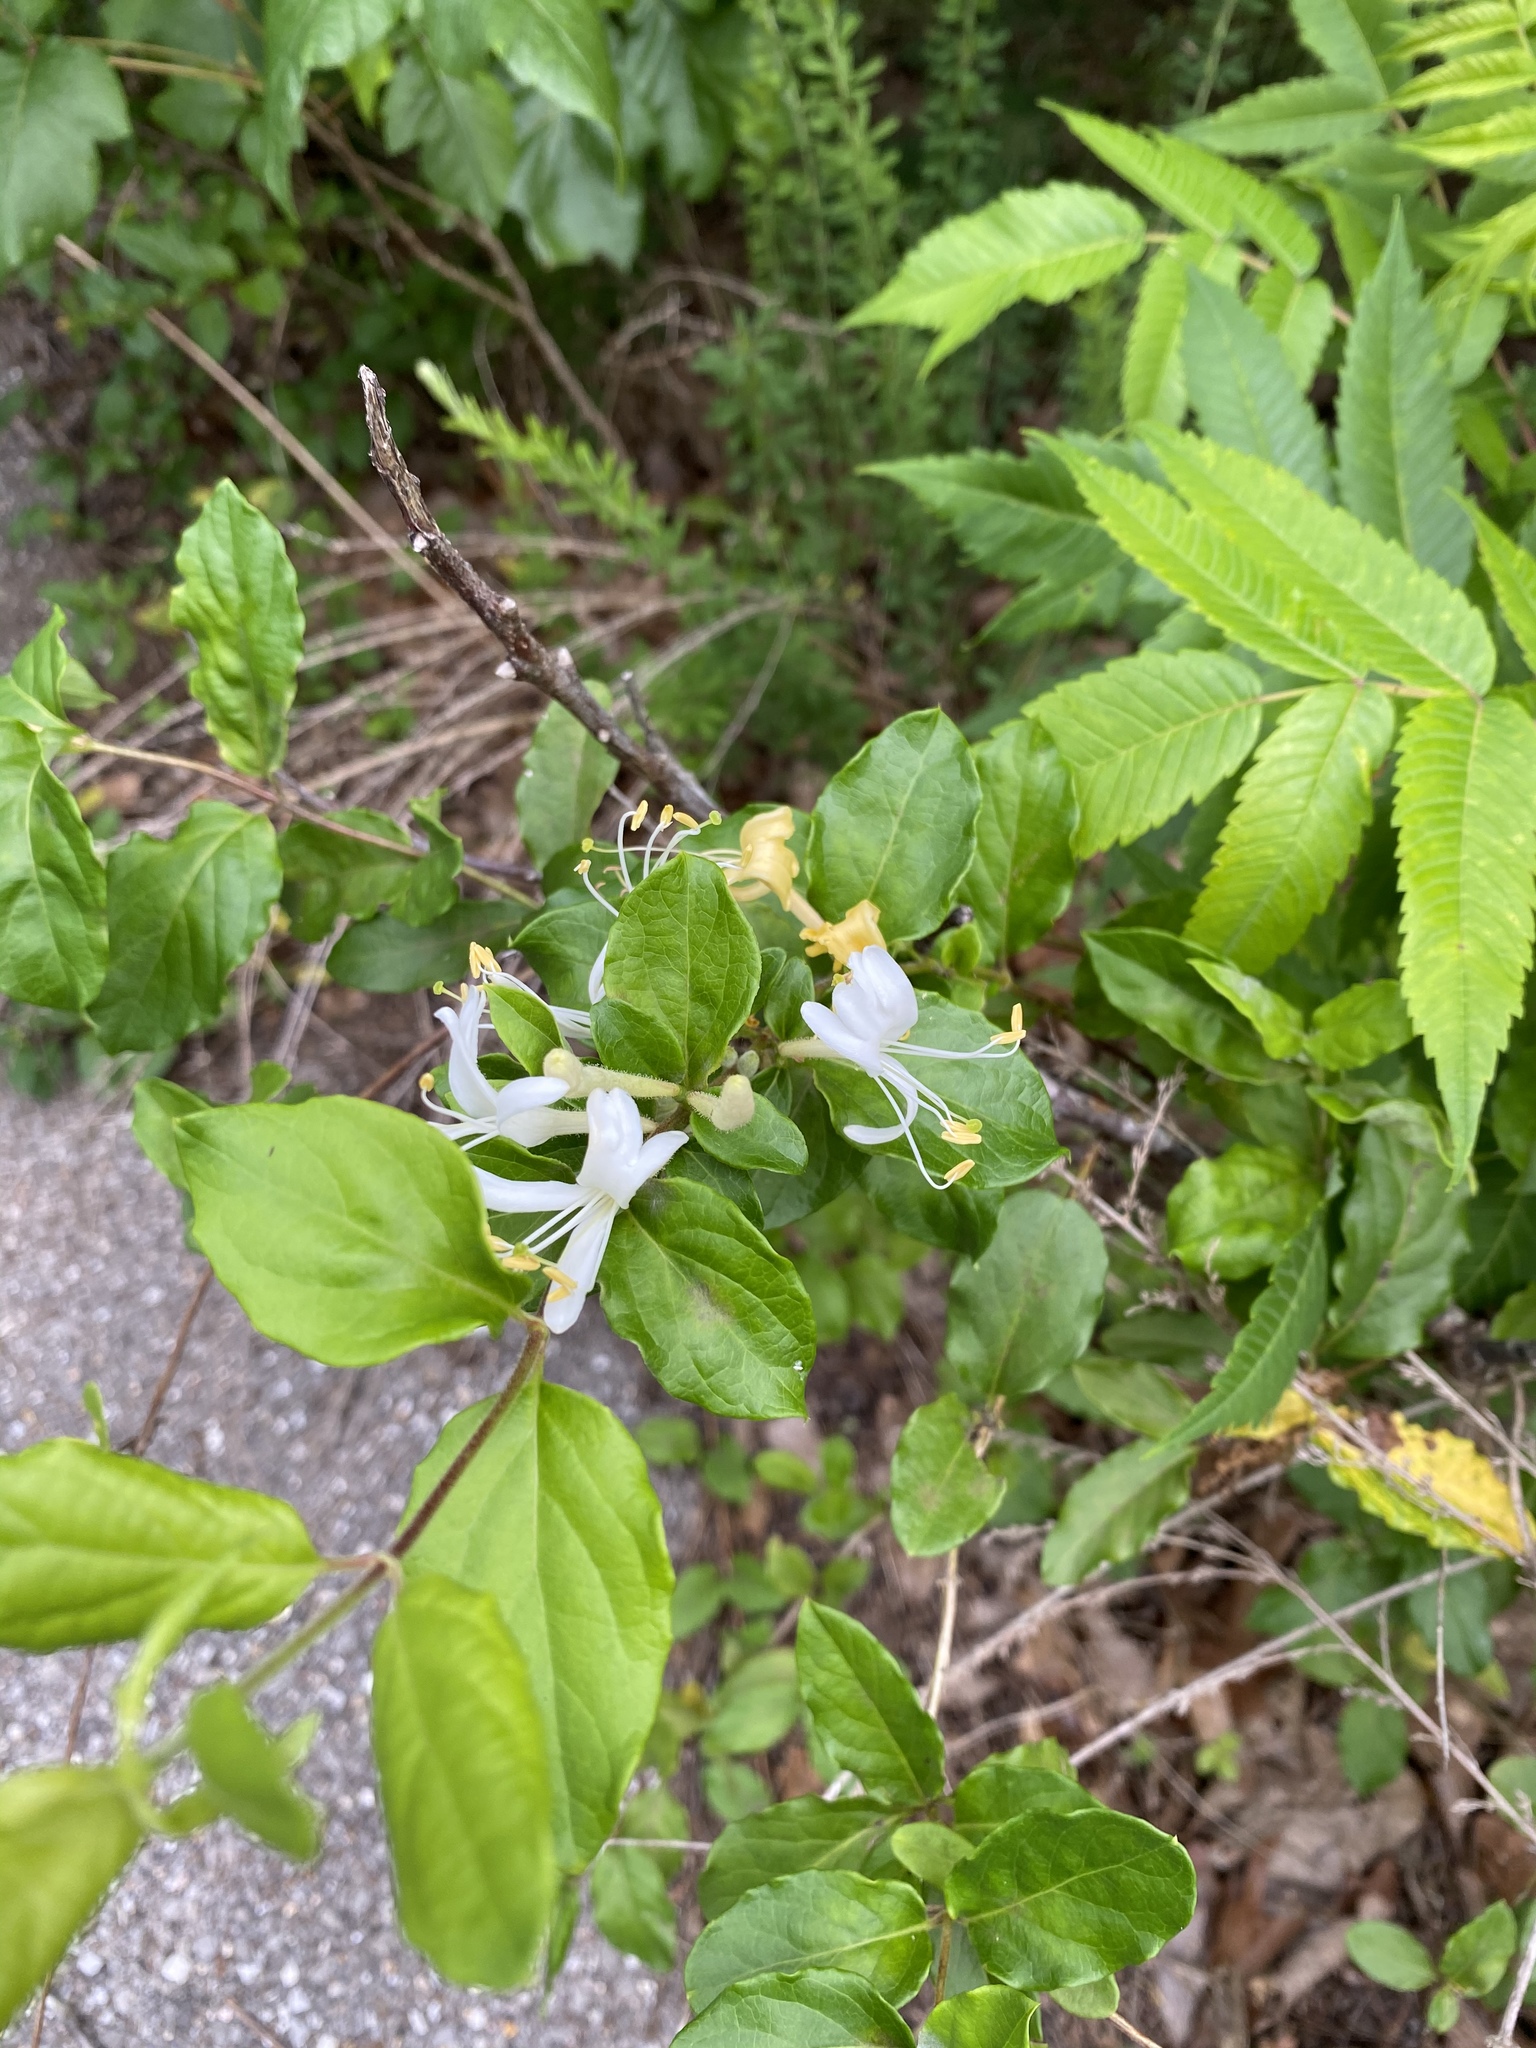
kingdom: Plantae
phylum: Tracheophyta
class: Magnoliopsida
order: Dipsacales
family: Caprifoliaceae
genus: Lonicera
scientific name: Lonicera japonica
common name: Japanese honeysuckle
